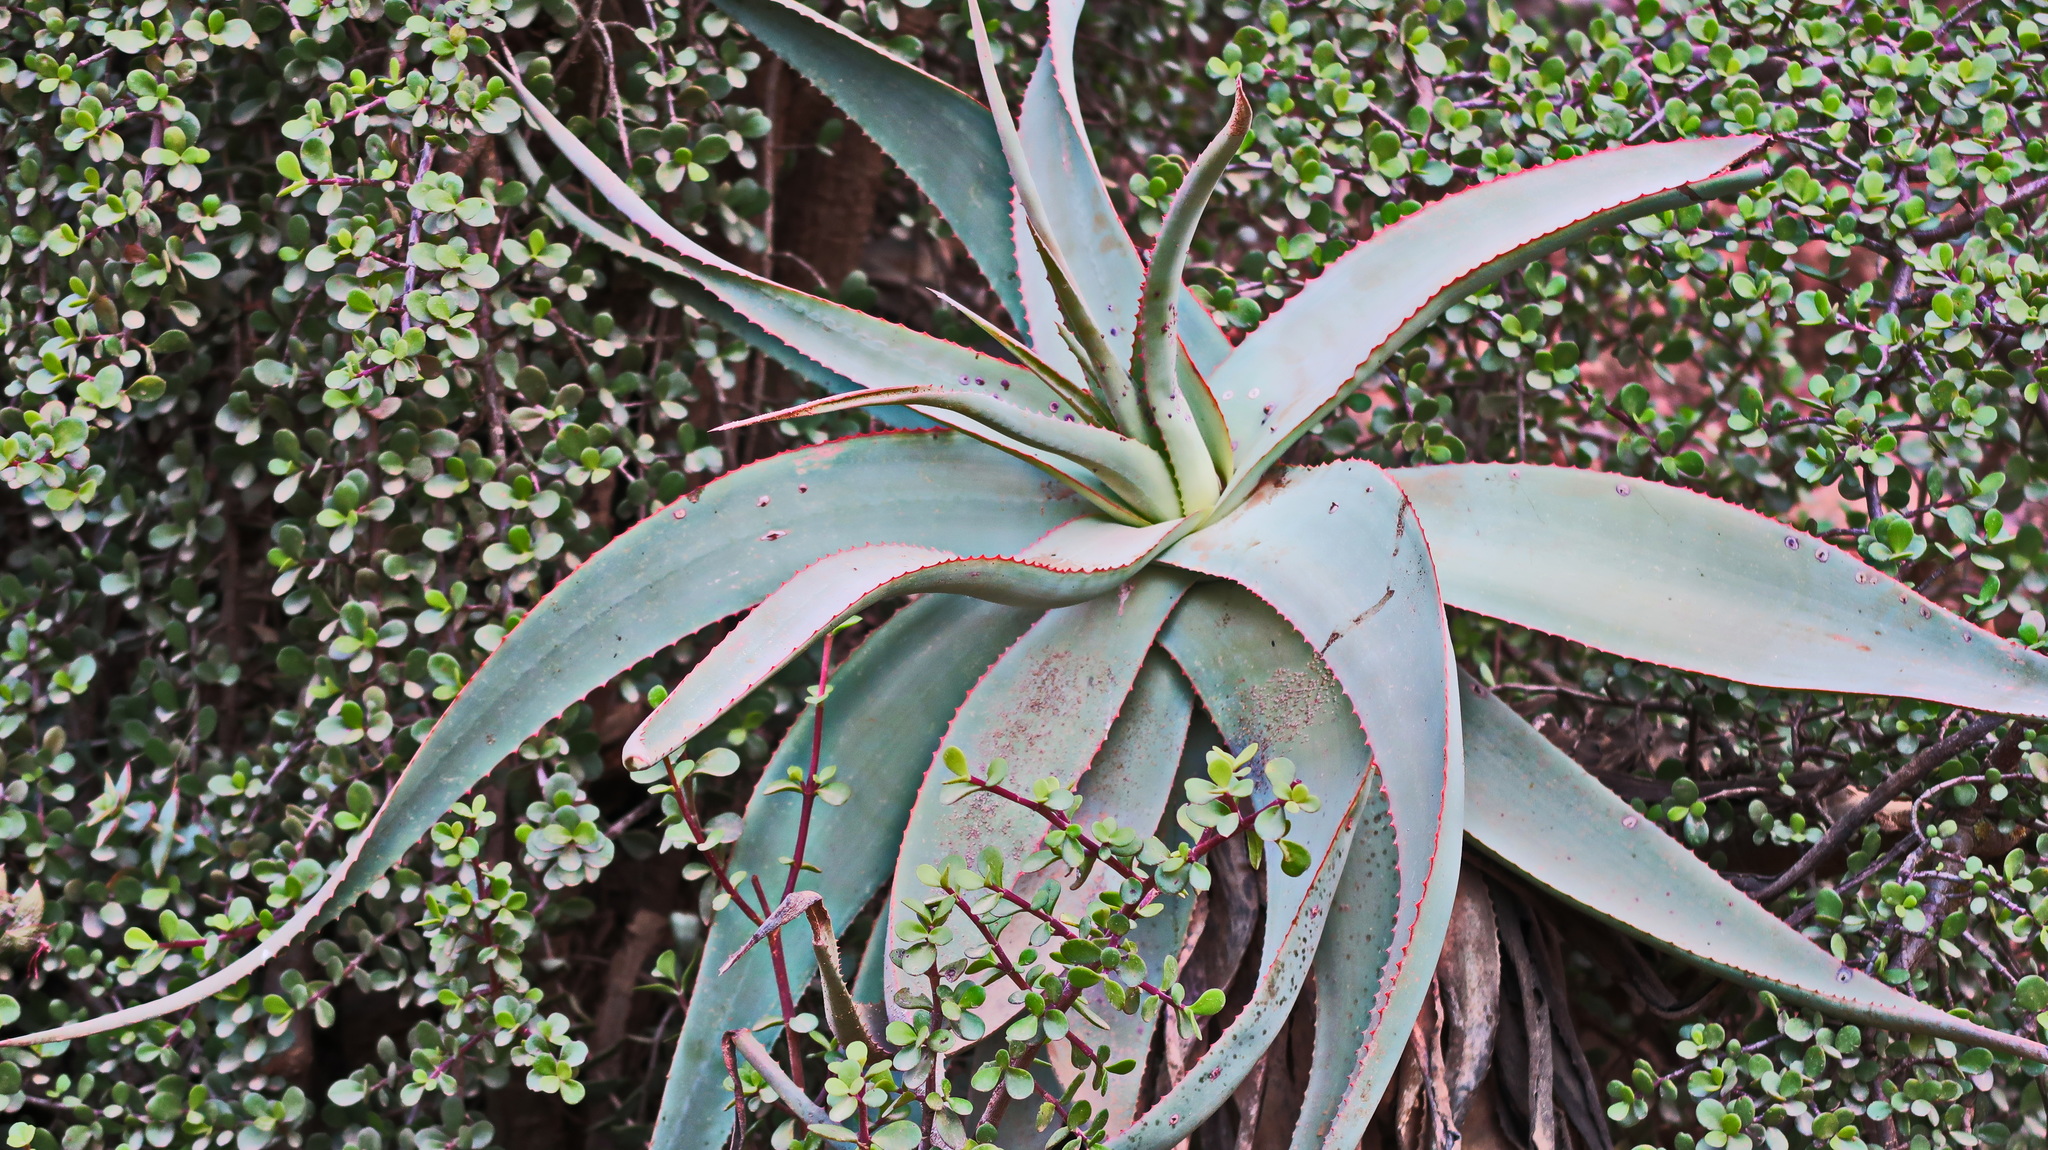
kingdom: Plantae
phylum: Tracheophyta
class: Liliopsida
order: Asparagales
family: Asphodelaceae
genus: Aloe
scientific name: Aloe speciosa
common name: Beautiful aloe
